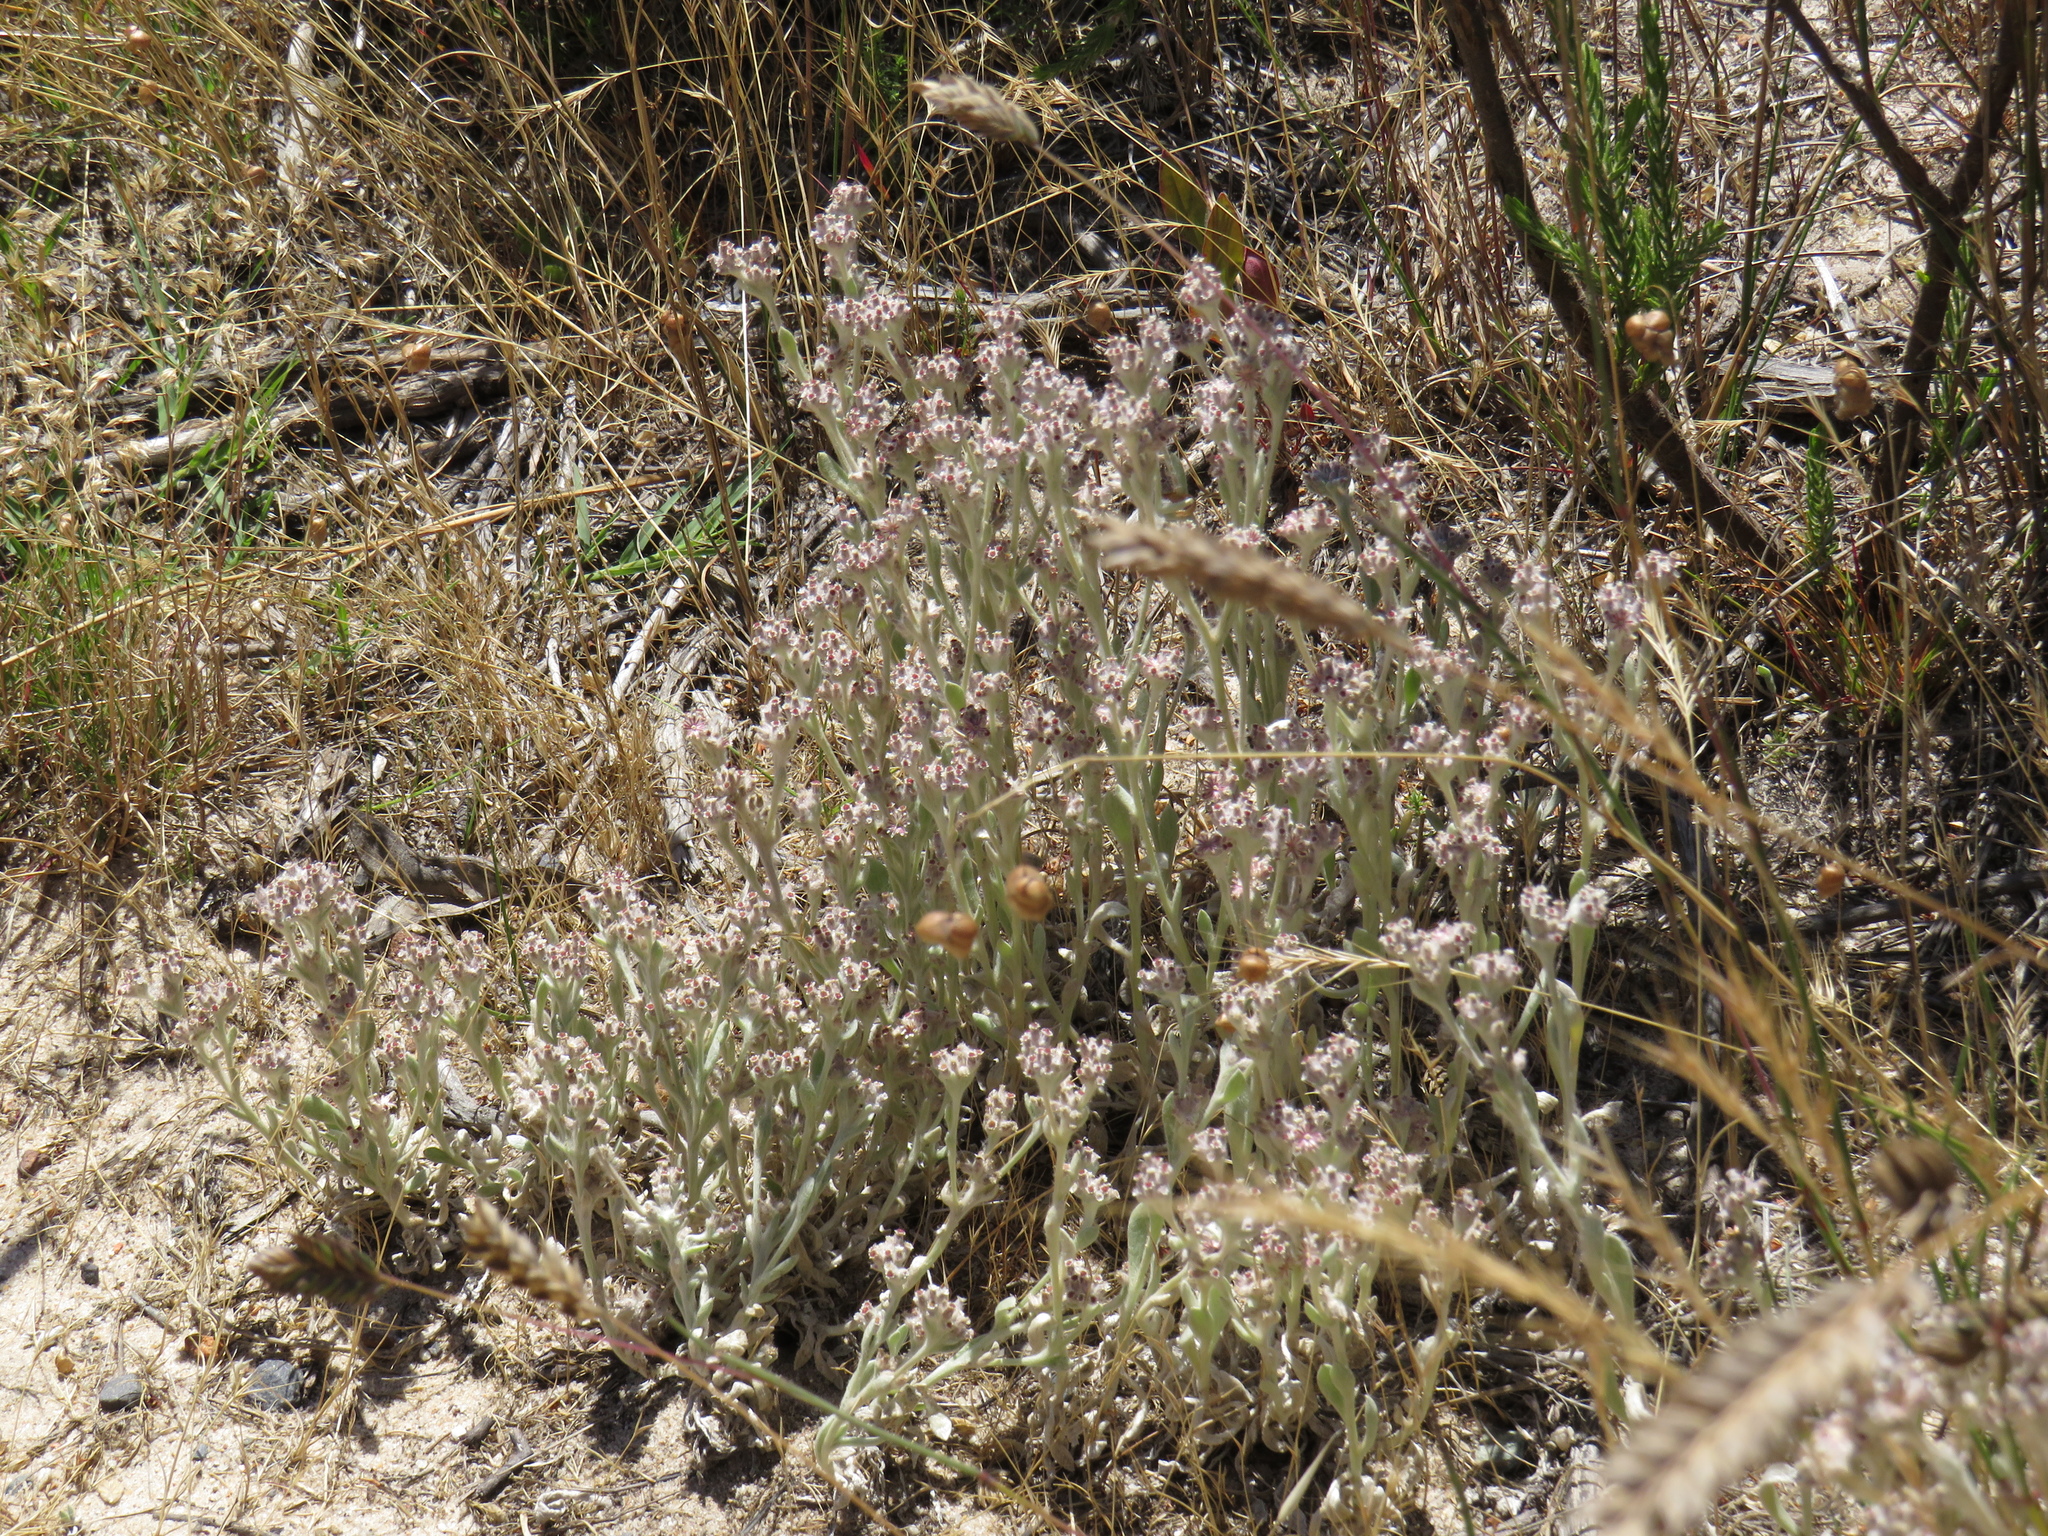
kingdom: Plantae
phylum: Tracheophyta
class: Magnoliopsida
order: Asterales
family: Asteraceae
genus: Vellereophyton
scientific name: Vellereophyton dealbatum
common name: White-cudweed
